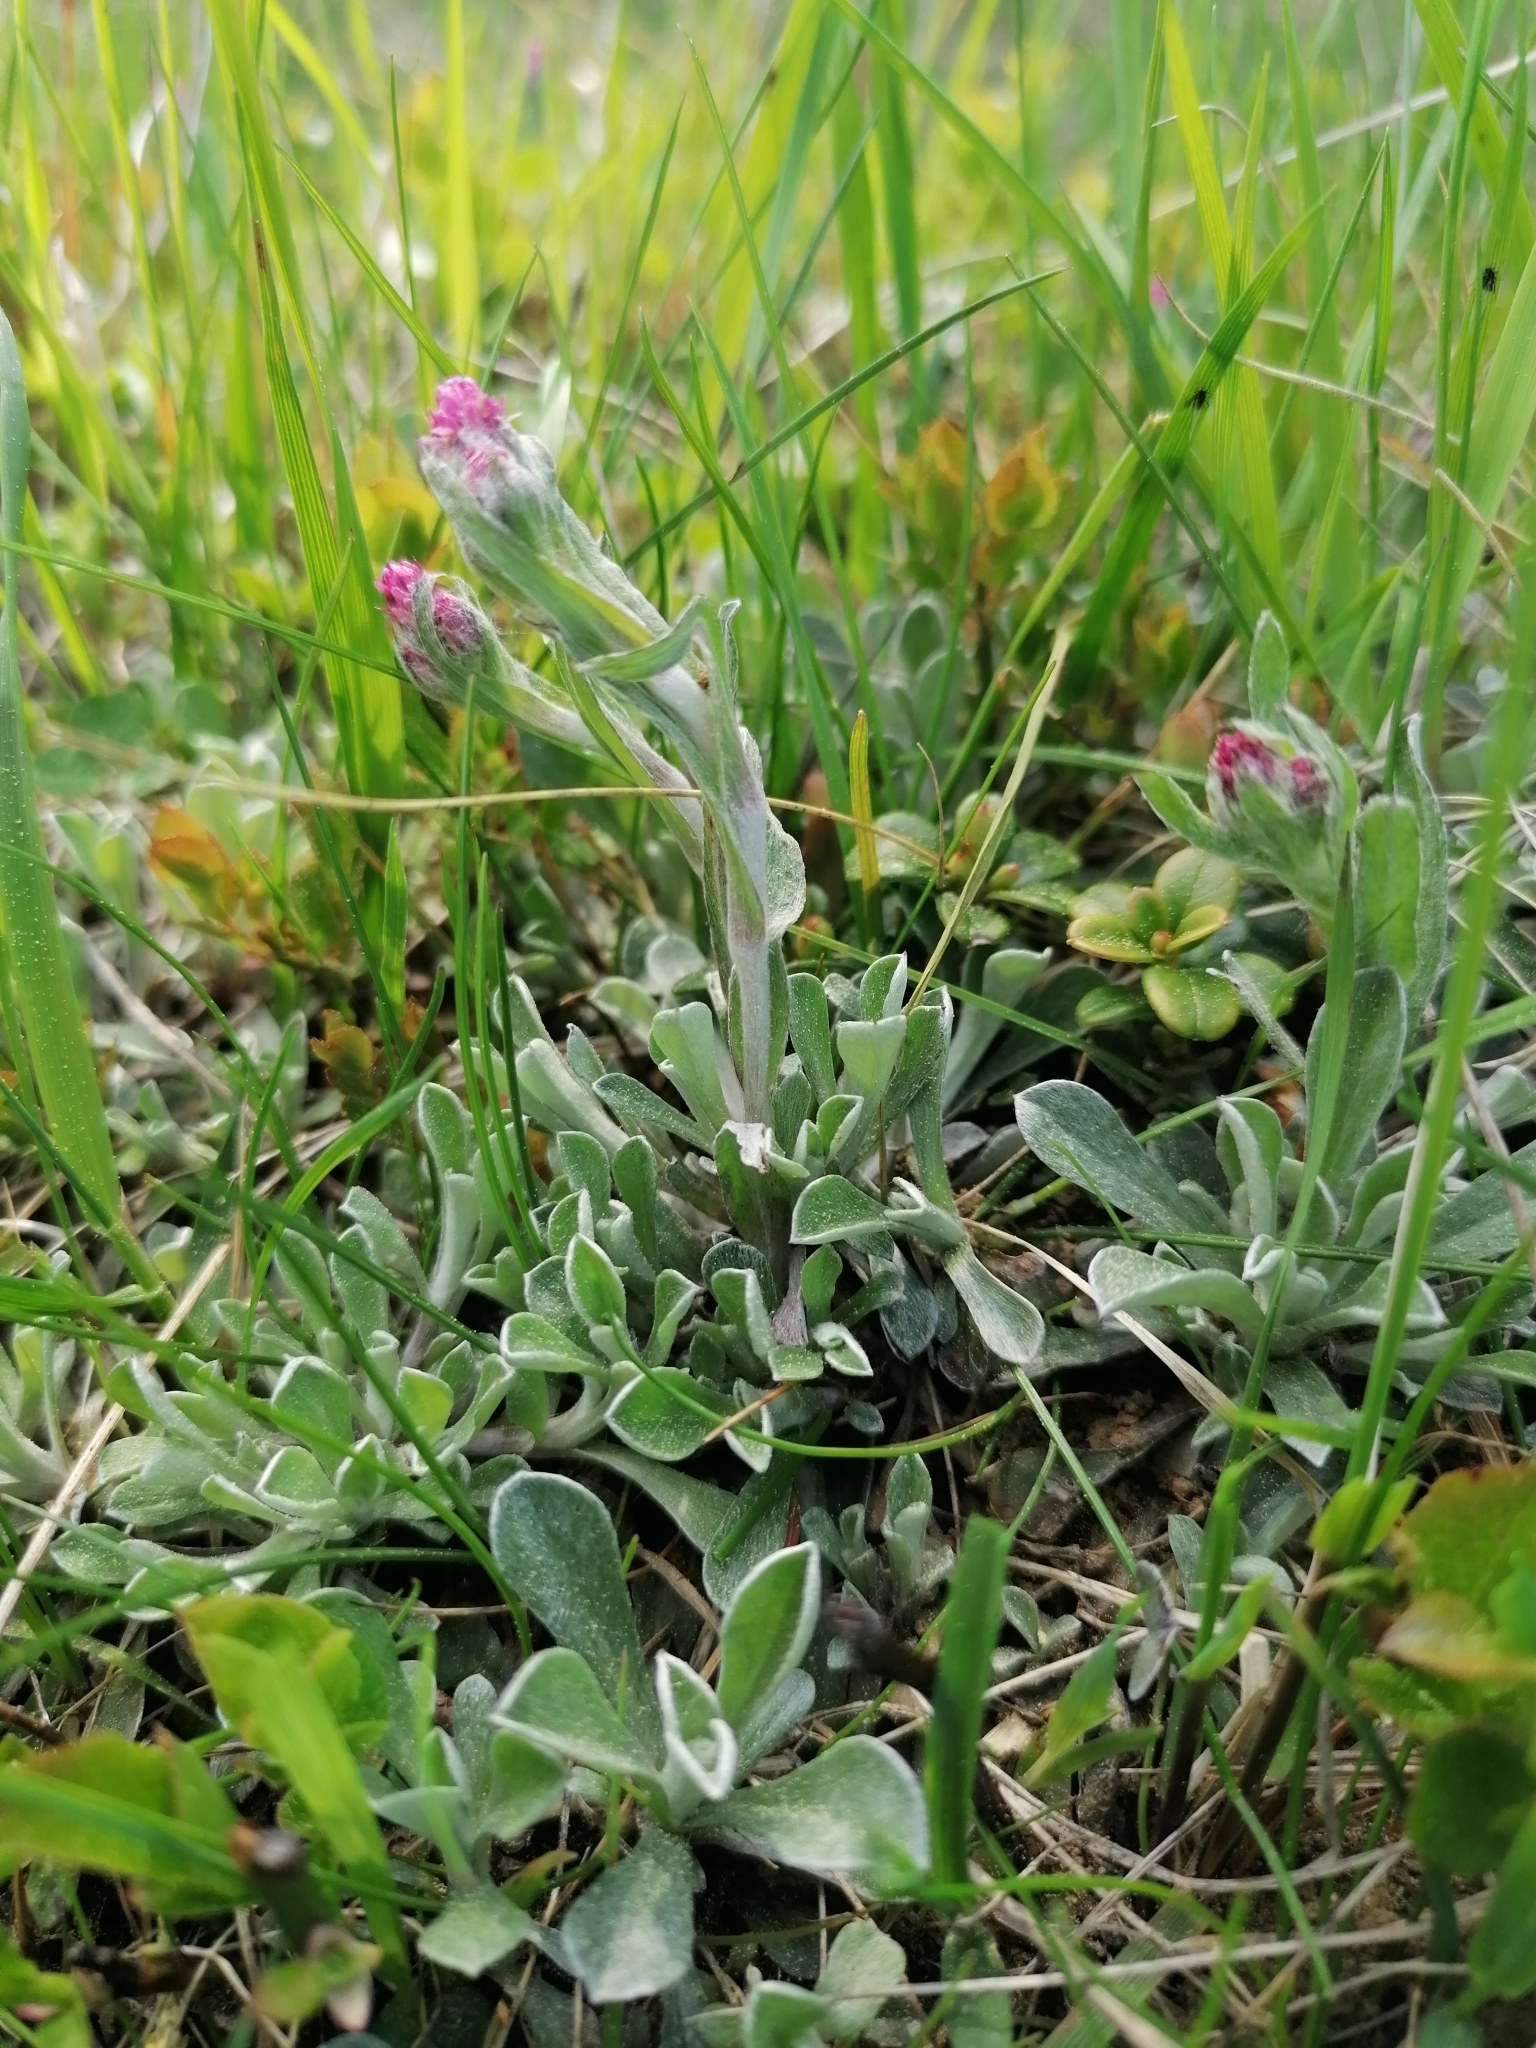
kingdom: Plantae
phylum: Tracheophyta
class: Magnoliopsida
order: Asterales
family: Asteraceae
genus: Antennaria
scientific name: Antennaria dioica
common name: Mountain everlasting
